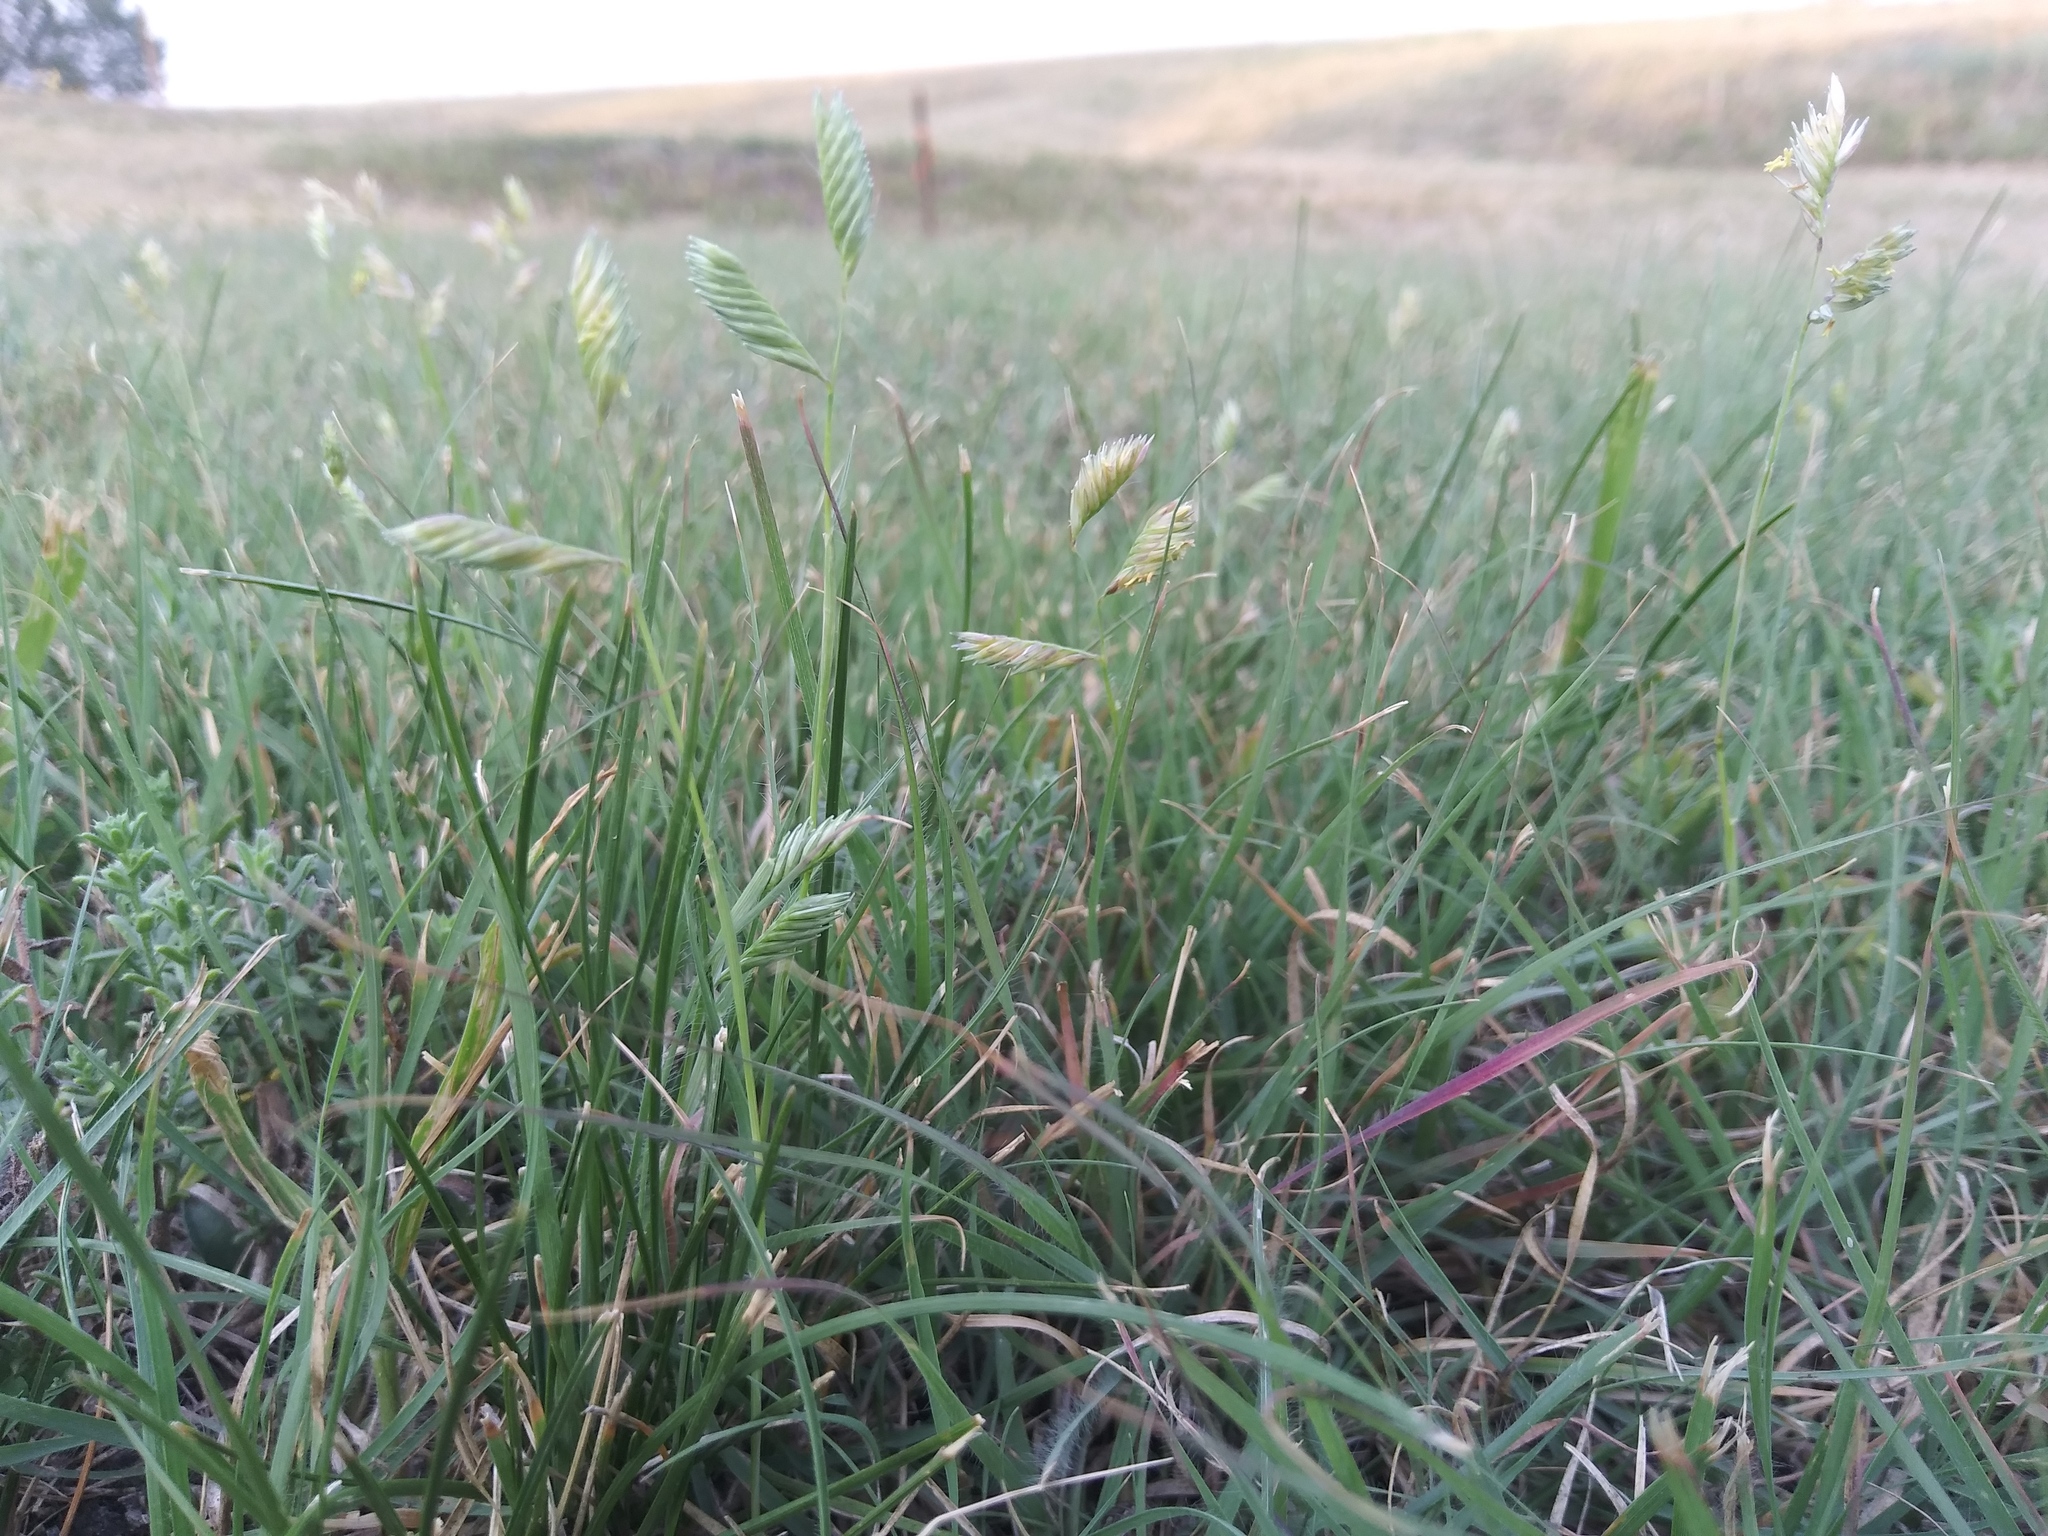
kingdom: Plantae
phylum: Tracheophyta
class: Liliopsida
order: Poales
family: Poaceae
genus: Bouteloua
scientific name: Bouteloua dactyloides
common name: Buffalo grass
